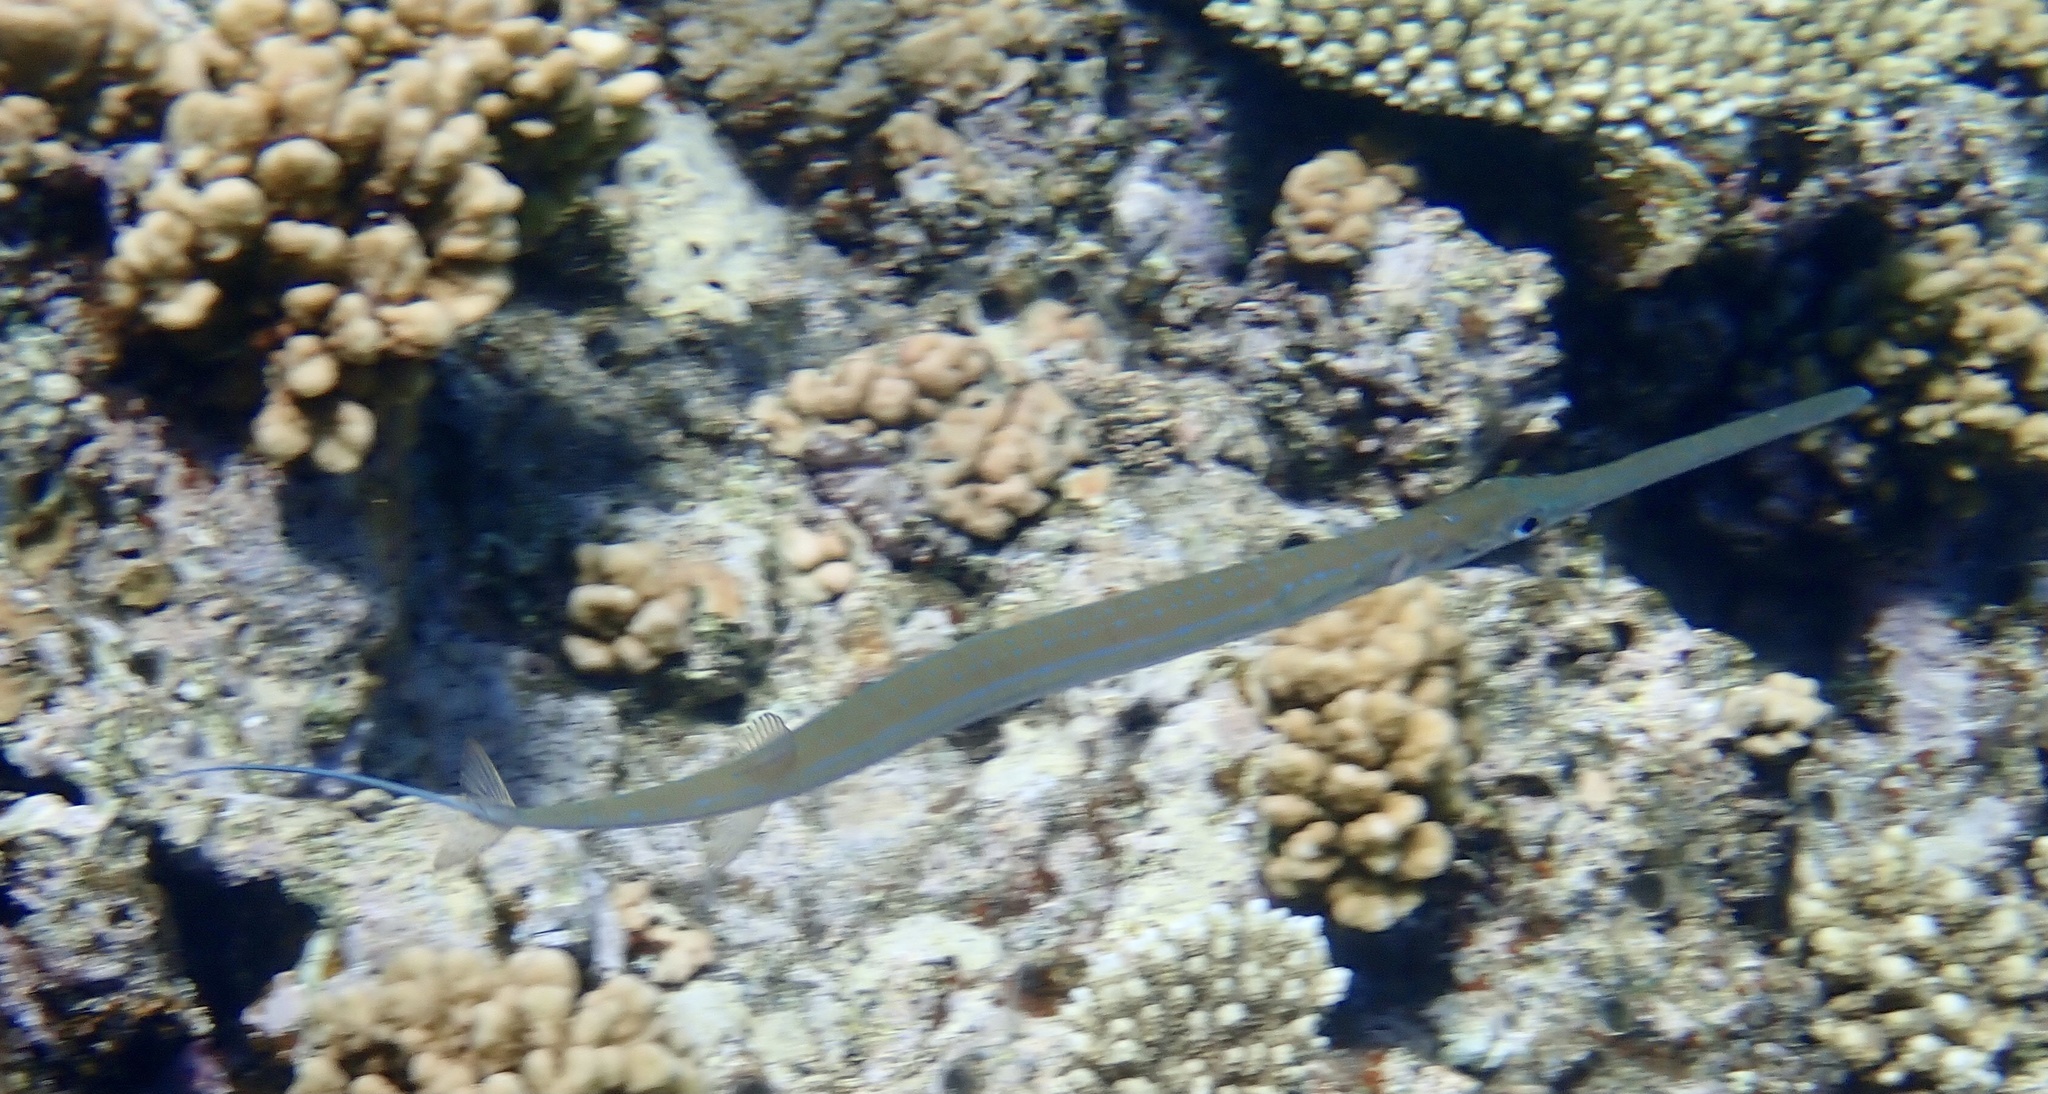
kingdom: Animalia
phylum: Chordata
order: Syngnathiformes
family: Fistulariidae
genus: Fistularia
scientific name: Fistularia commersonii
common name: Bluespotted cornetfish
